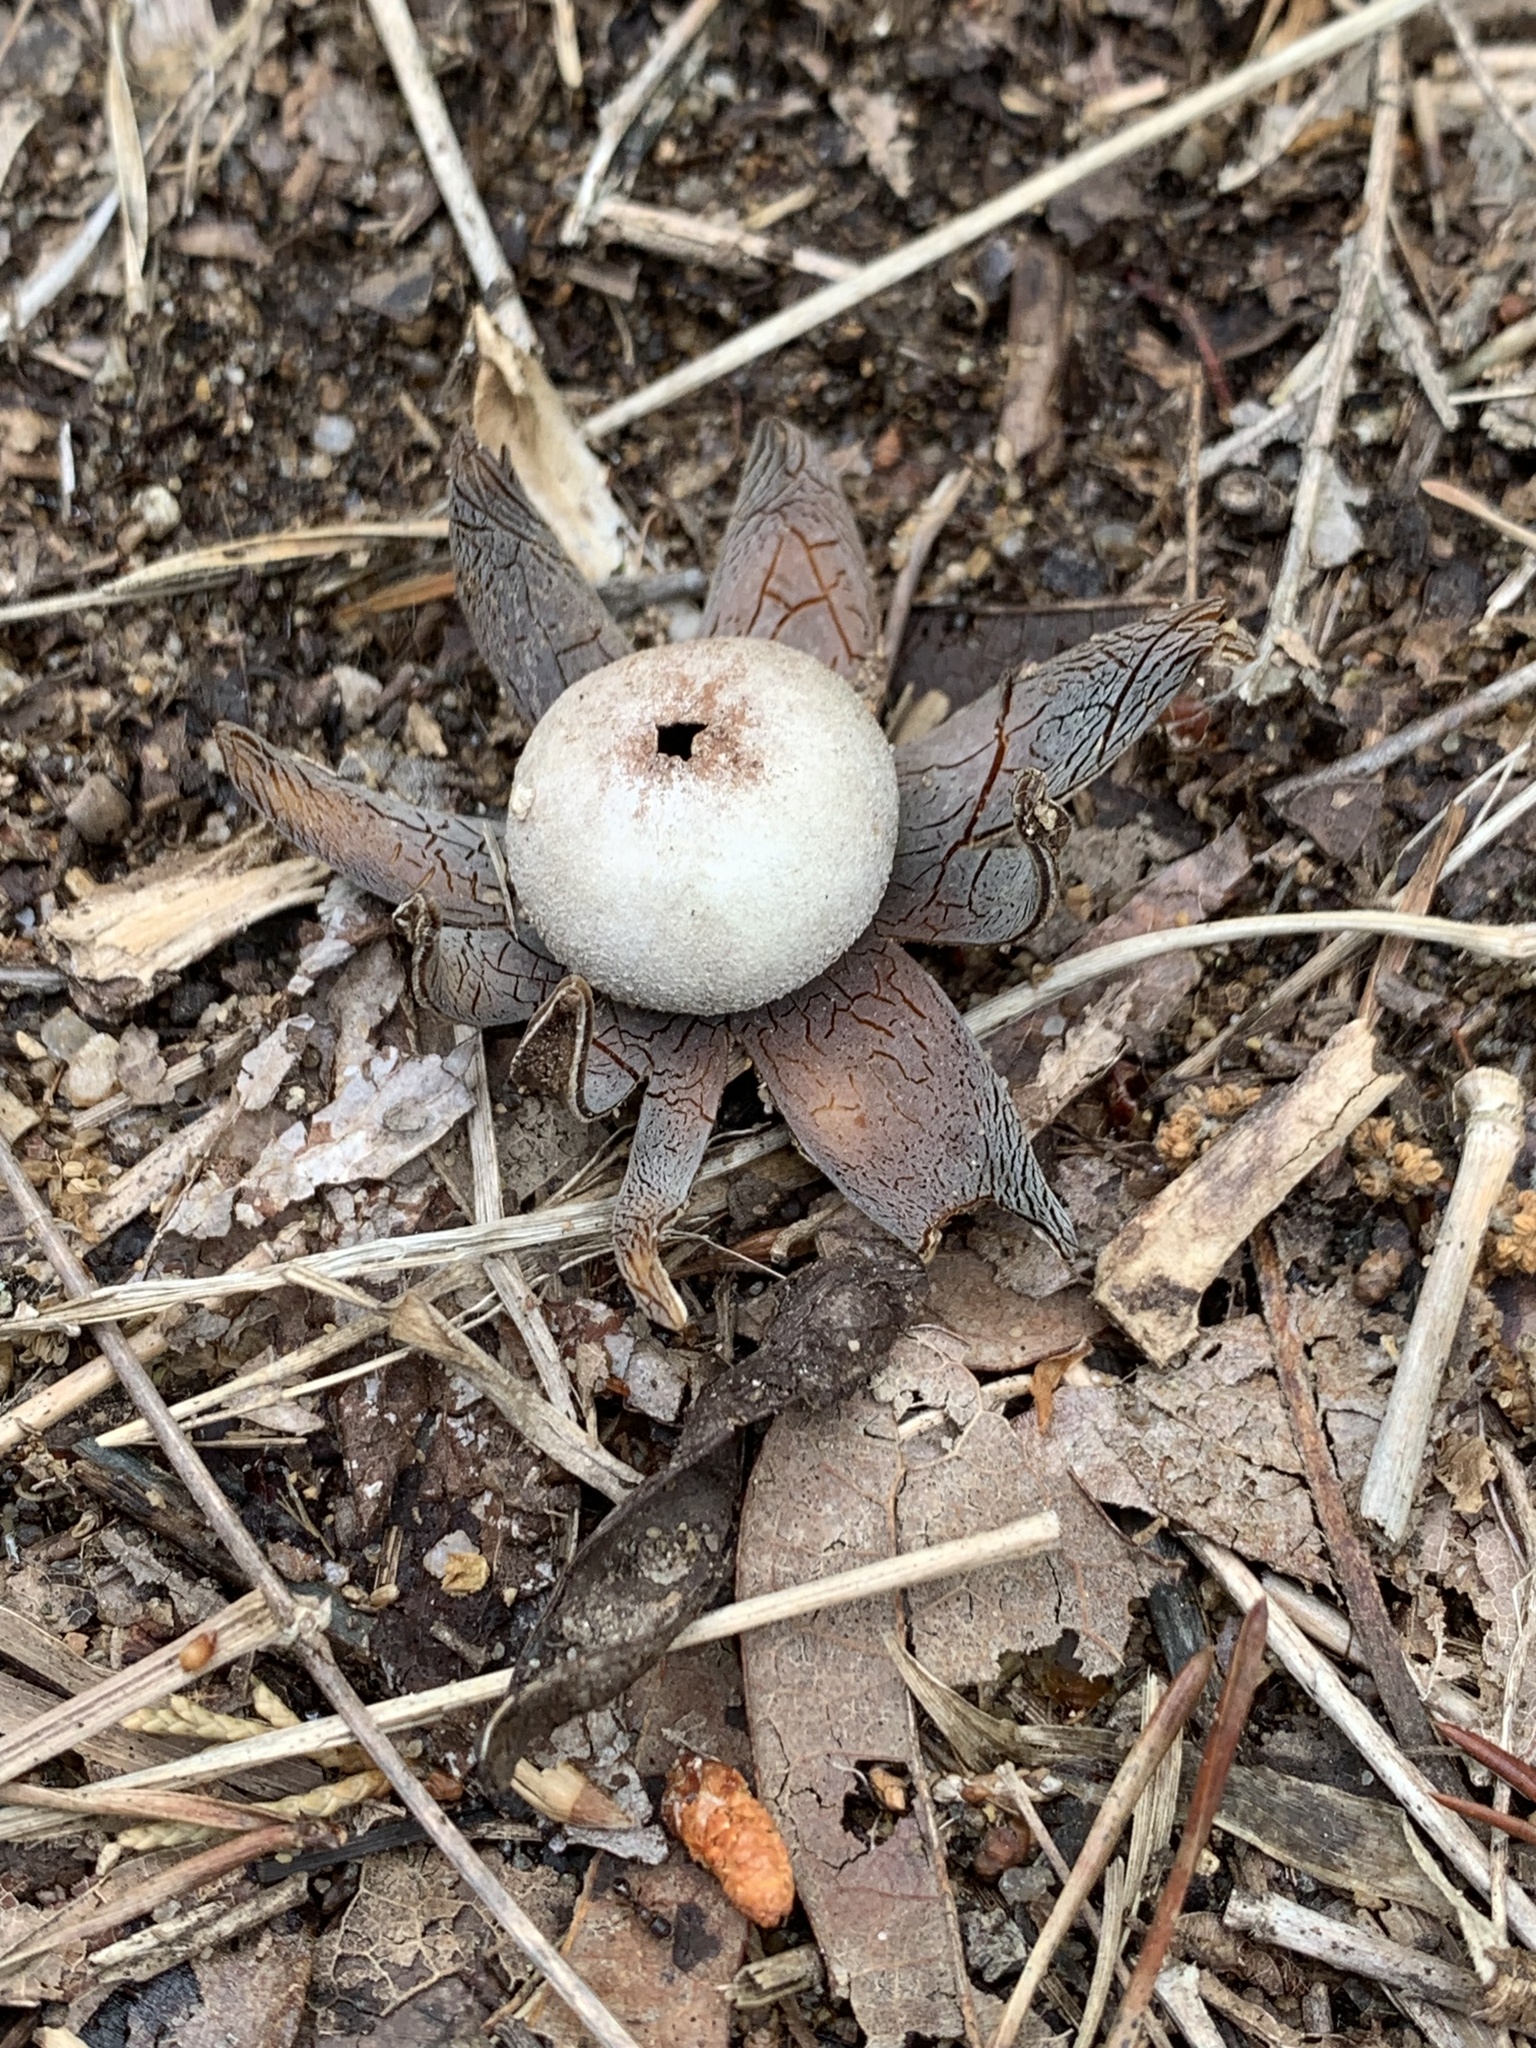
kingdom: Fungi
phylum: Basidiomycota
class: Agaricomycetes
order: Boletales
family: Diplocystidiaceae
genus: Astraeus
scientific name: Astraeus hygrometricus
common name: Barometer earthstar
